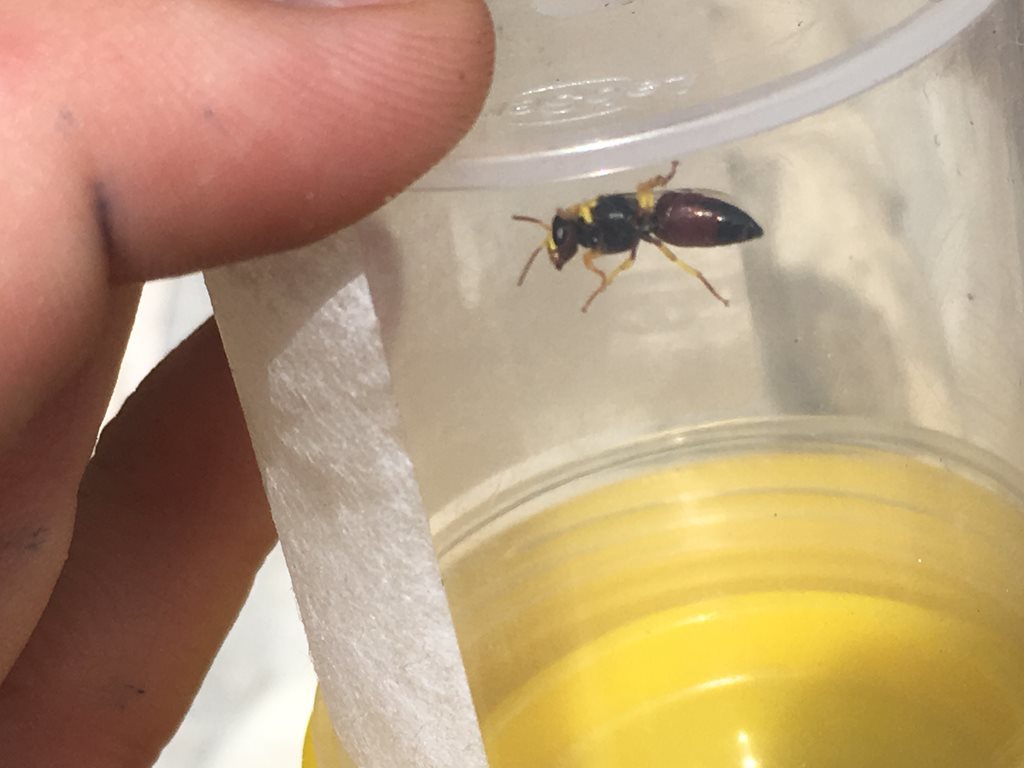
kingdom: Animalia
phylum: Arthropoda
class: Insecta
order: Hymenoptera
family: Colletidae
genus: Hylaeus
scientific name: Hylaeus elegans
